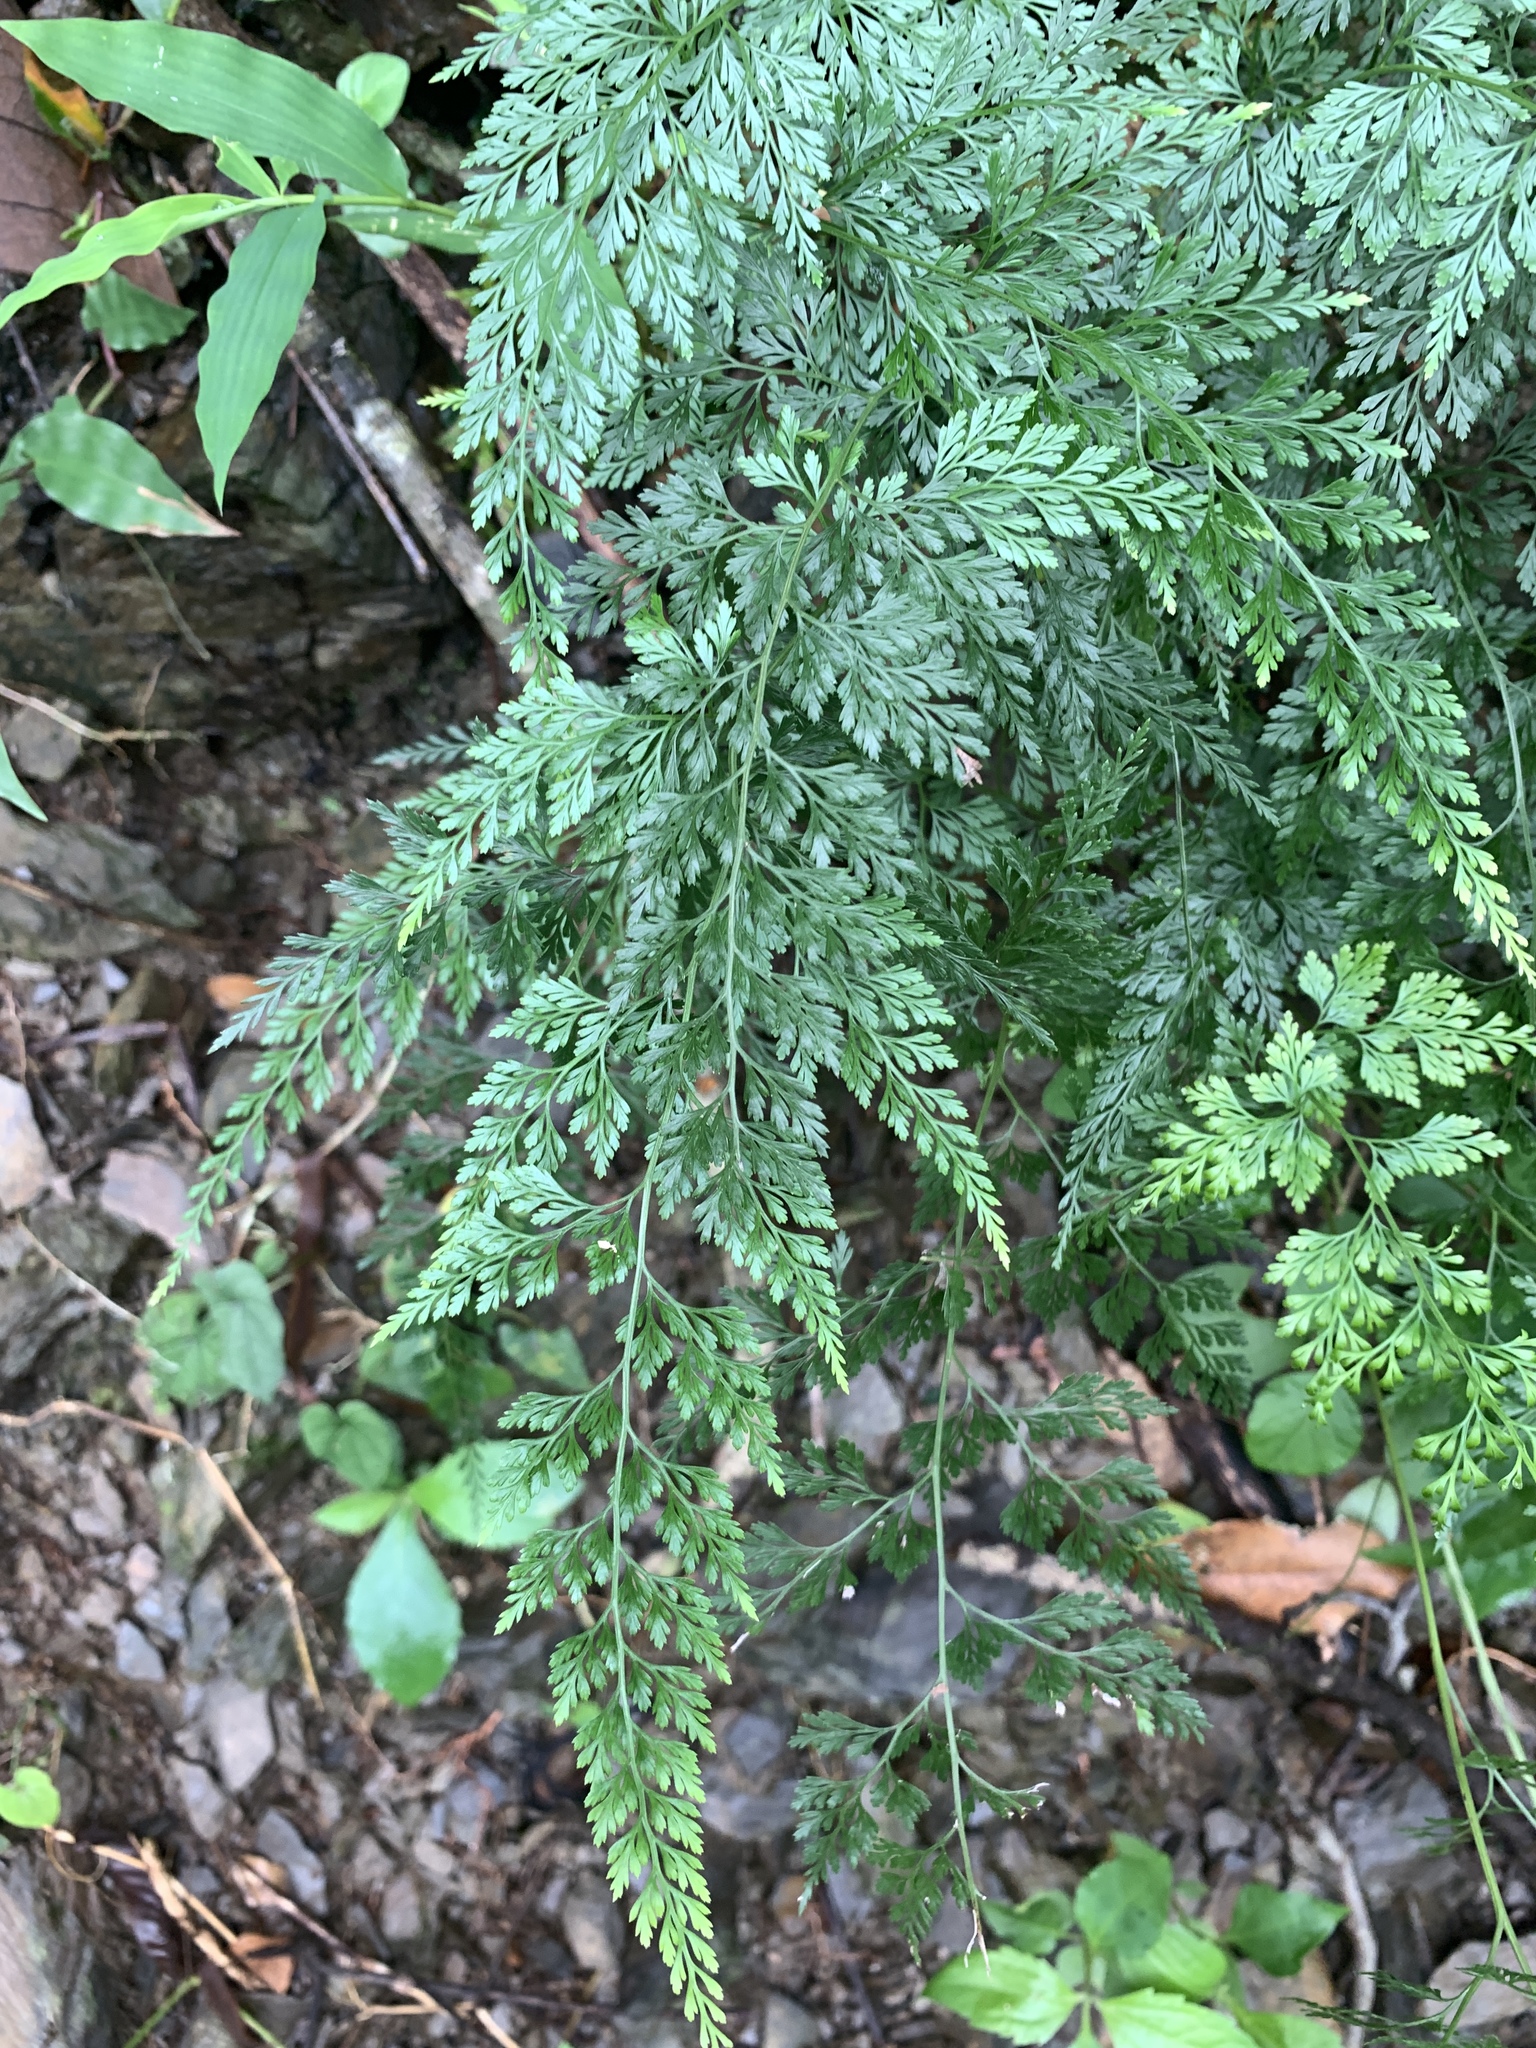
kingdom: Plantae
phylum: Tracheophyta
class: Polypodiopsida
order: Polypodiales
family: Pteridaceae
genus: Onychium
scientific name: Onychium japonicum
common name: Carrot fern
